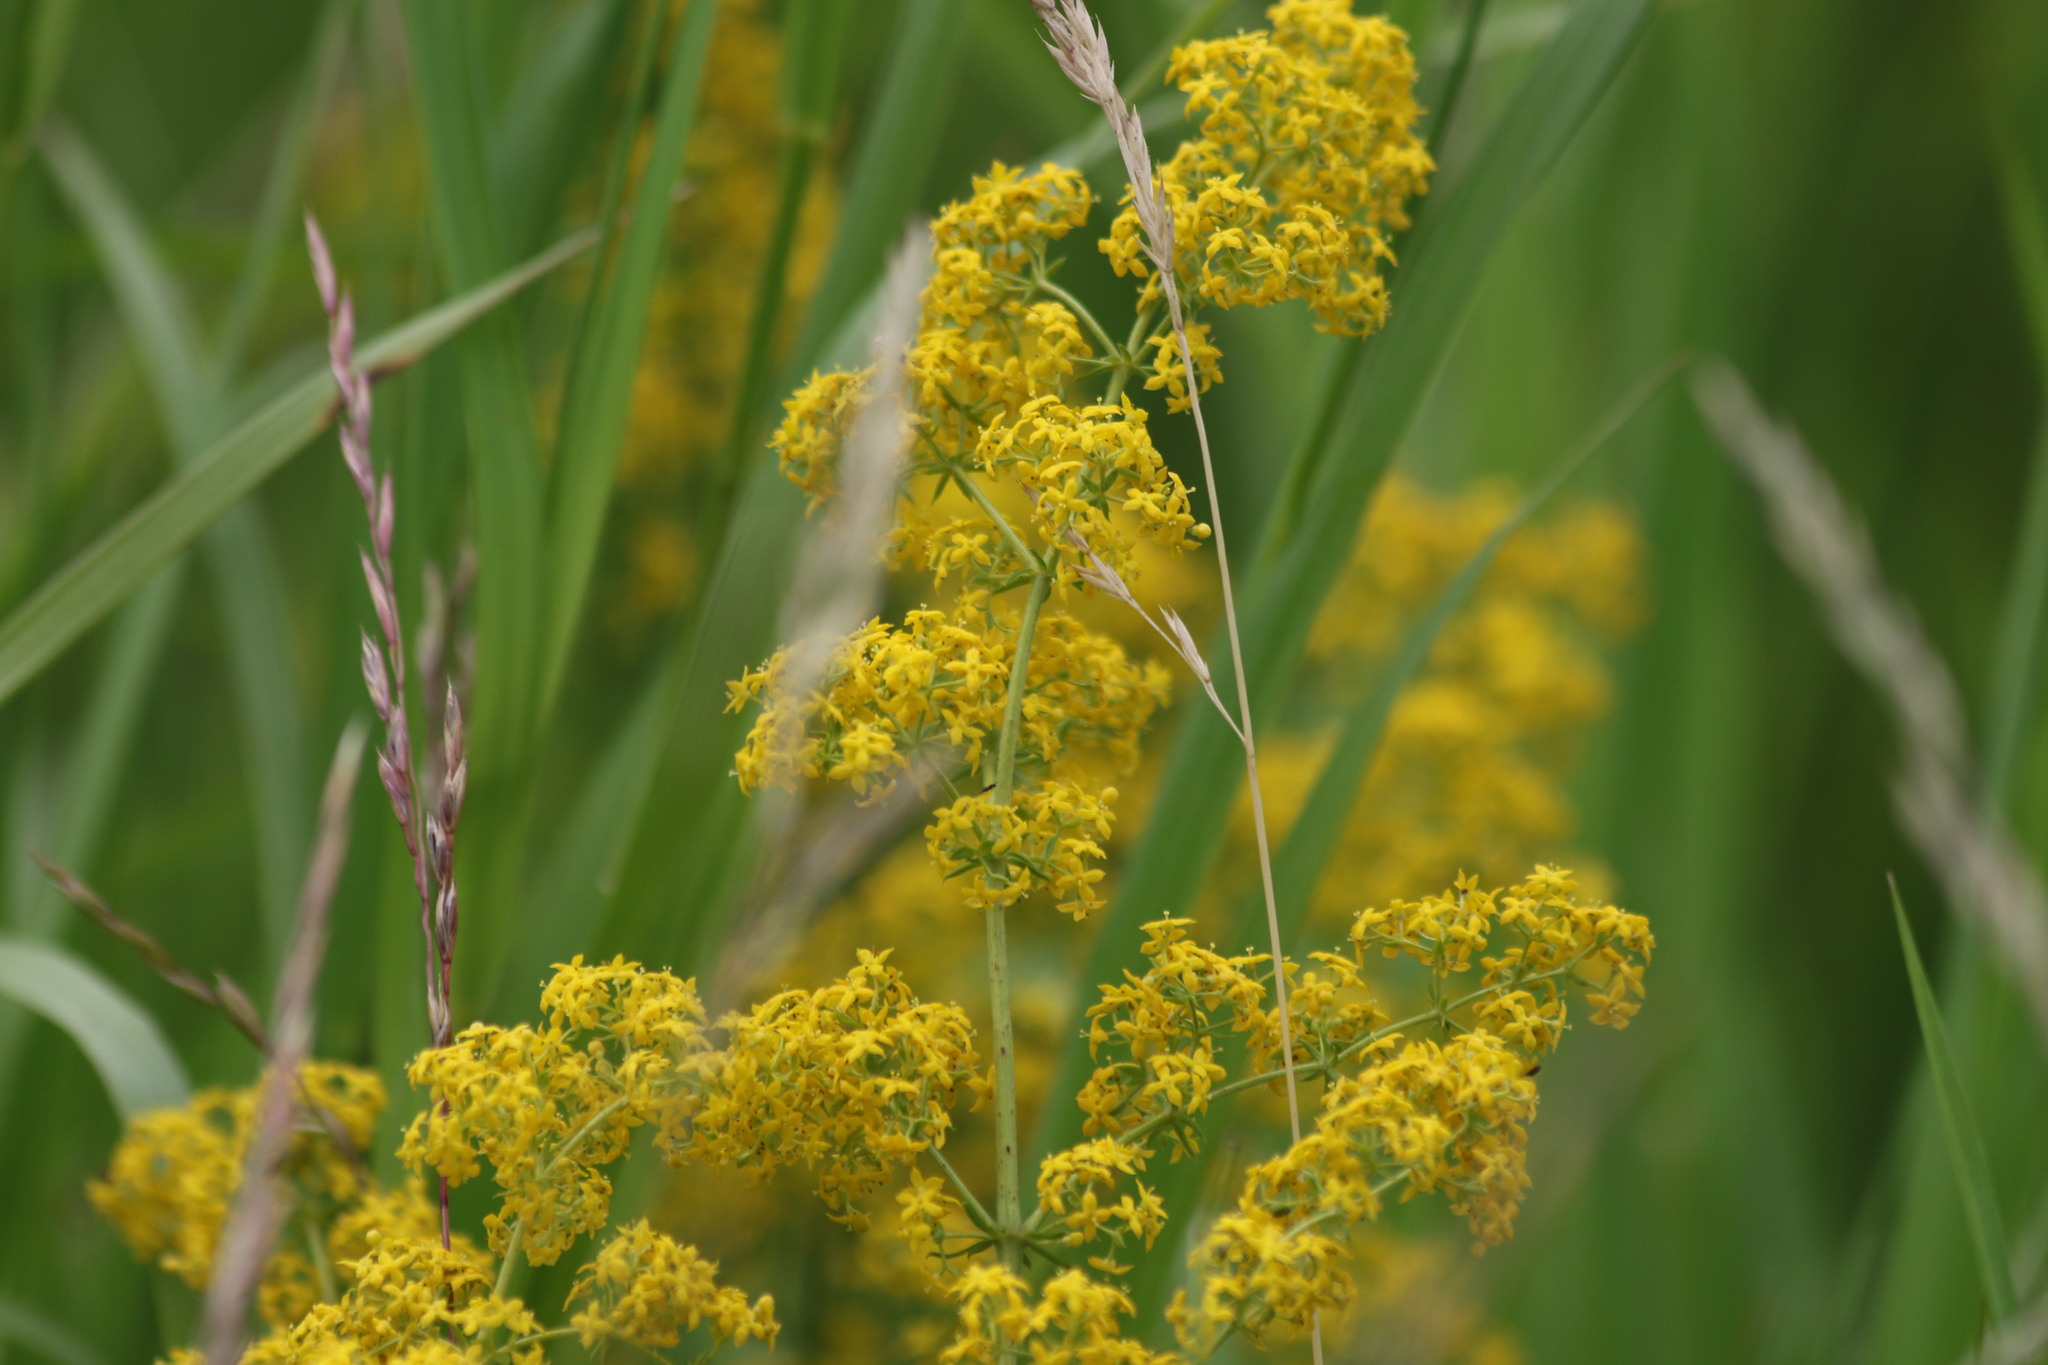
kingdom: Plantae
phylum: Tracheophyta
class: Magnoliopsida
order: Gentianales
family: Rubiaceae
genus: Galium
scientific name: Galium verum
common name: Lady's bedstraw
